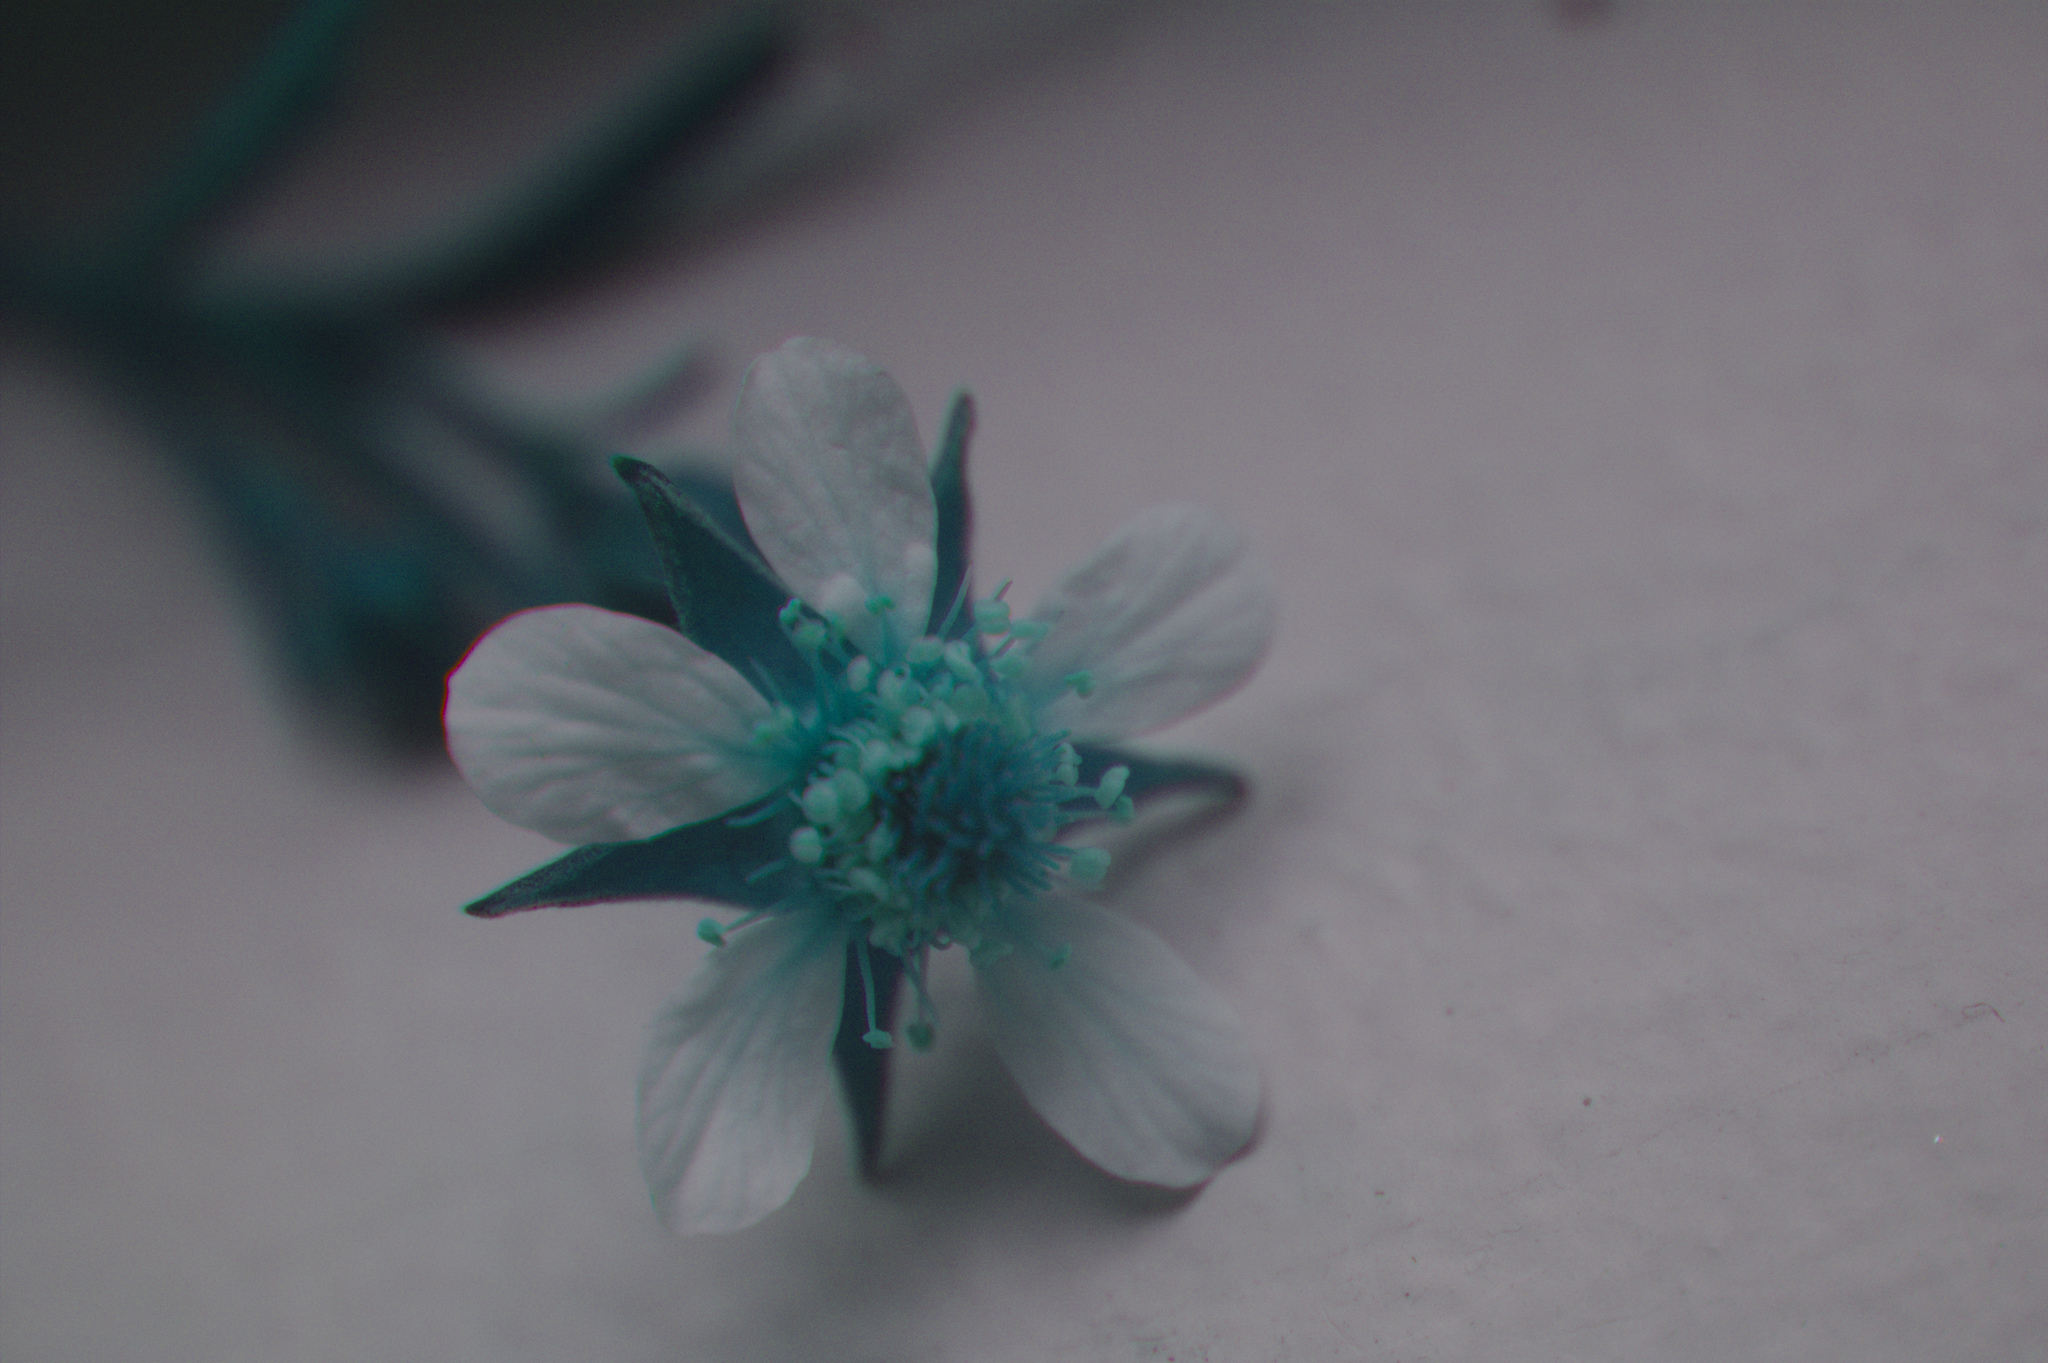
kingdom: Plantae
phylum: Tracheophyta
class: Magnoliopsida
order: Rosales
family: Rosaceae
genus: Geum
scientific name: Geum canadense
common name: White avens
